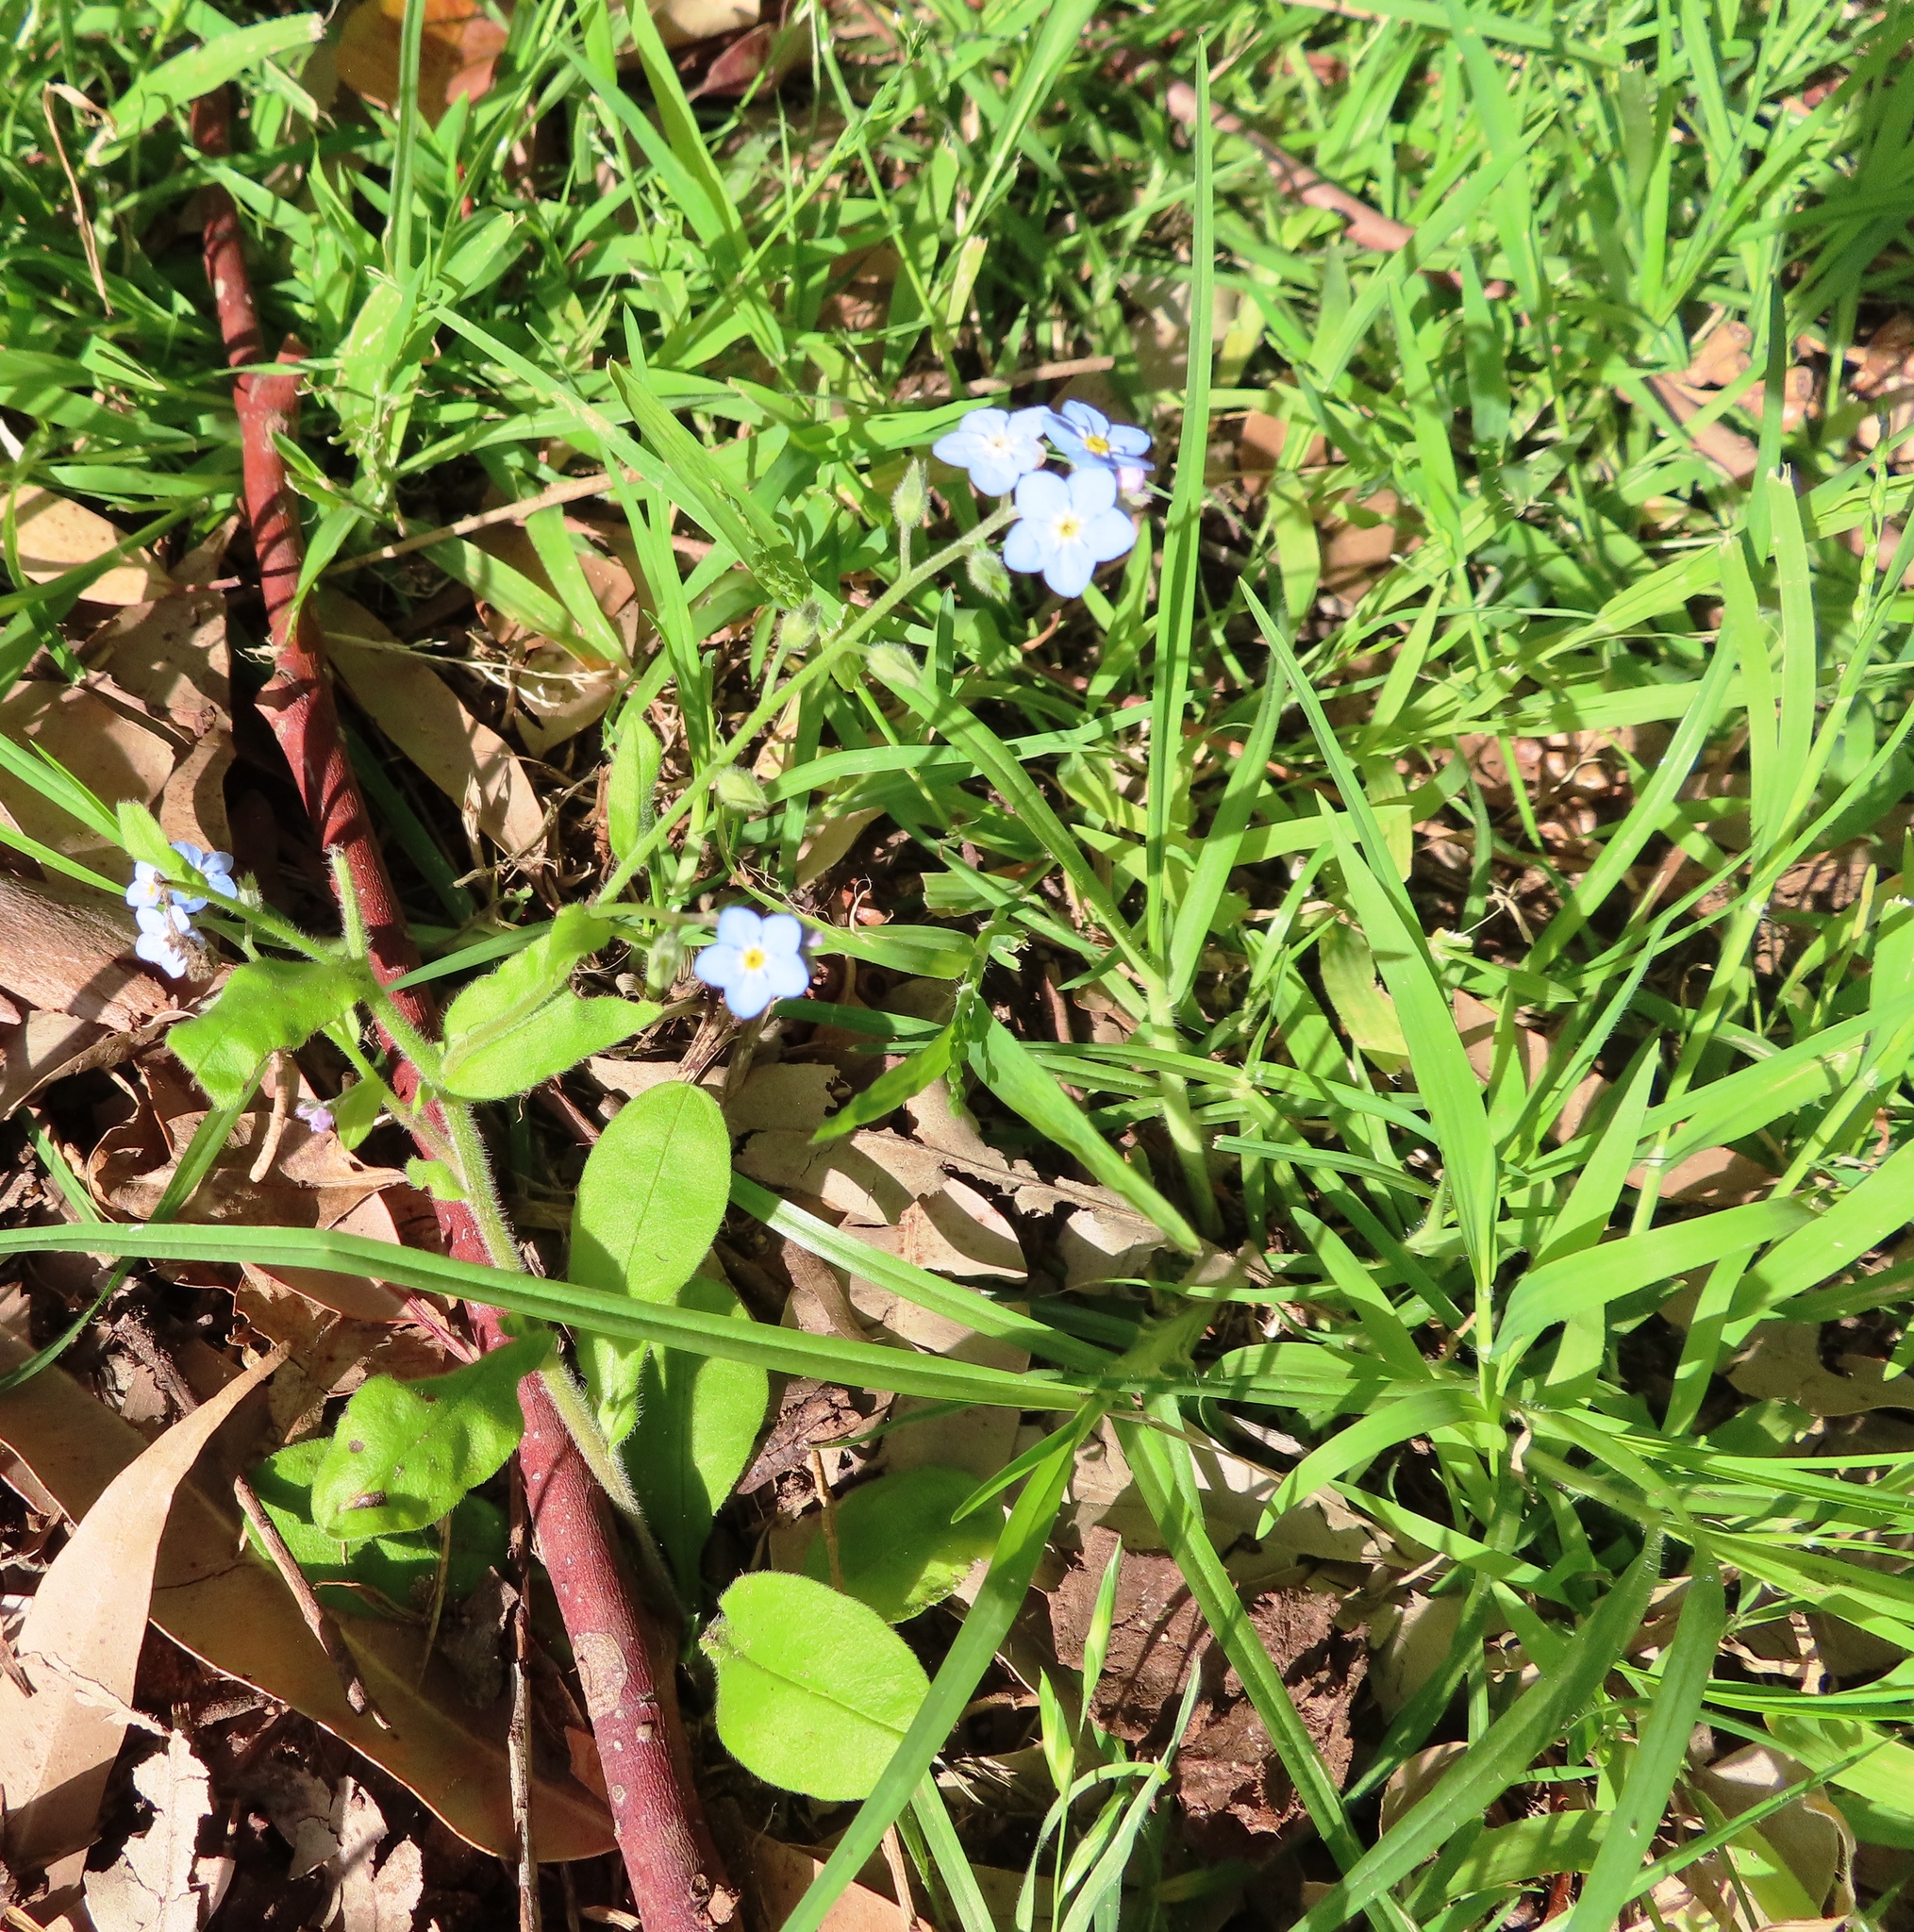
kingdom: Plantae
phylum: Tracheophyta
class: Magnoliopsida
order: Boraginales
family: Boraginaceae
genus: Myosotis
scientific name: Myosotis sylvatica
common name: Wood forget-me-not
